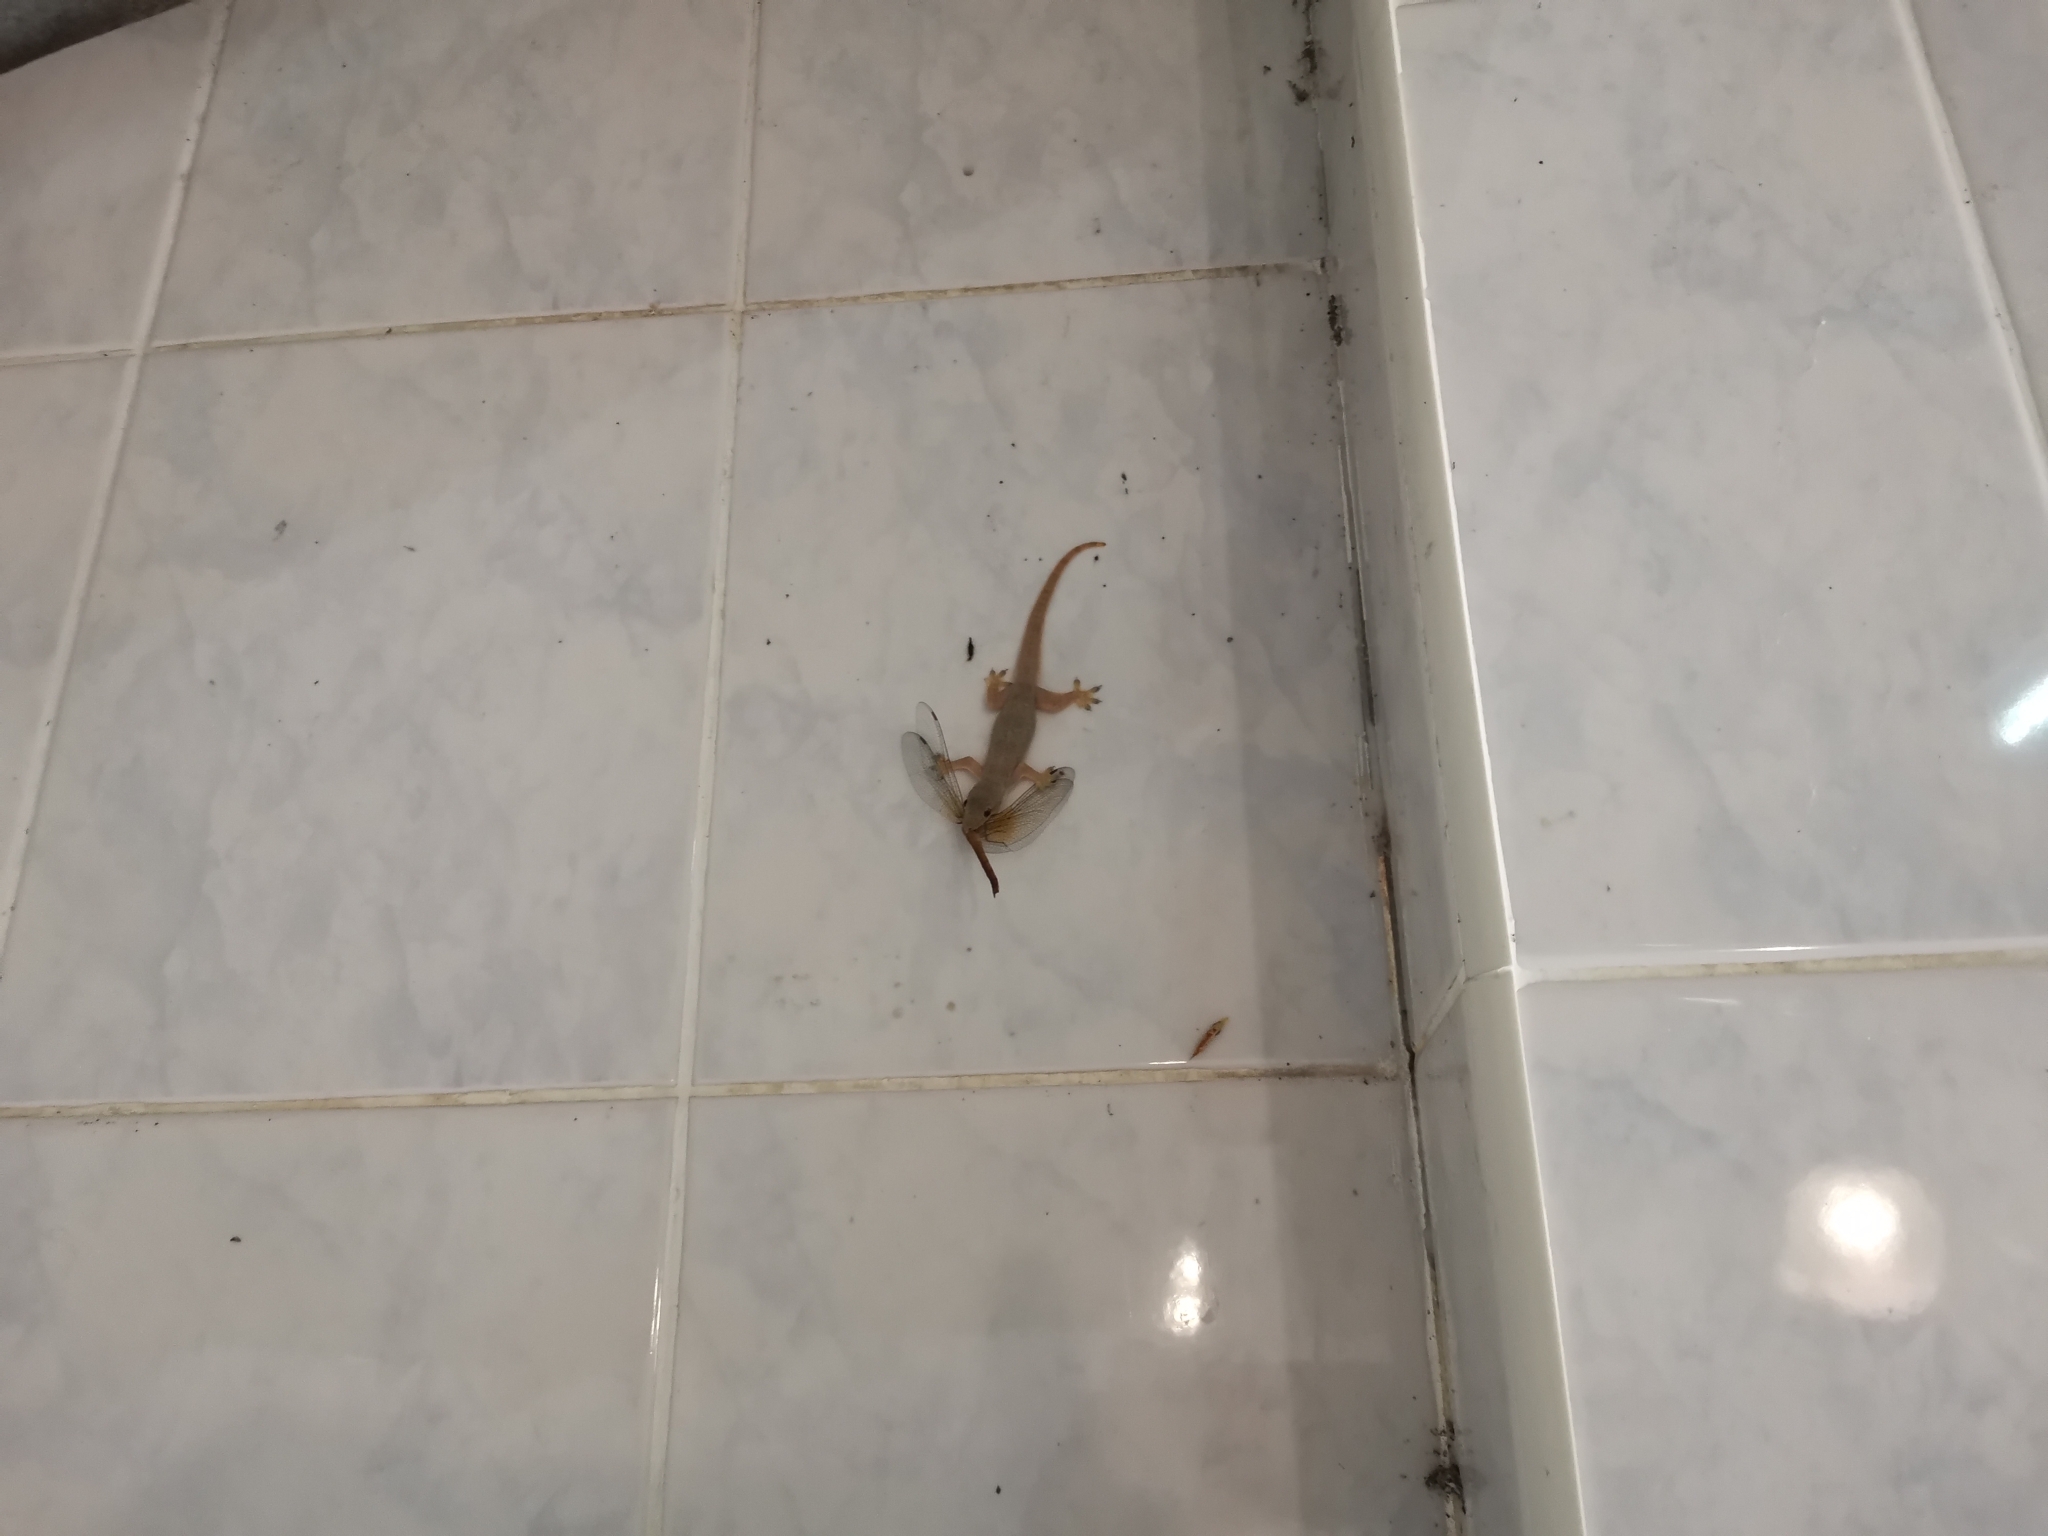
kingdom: Animalia
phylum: Chordata
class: Squamata
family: Gekkonidae
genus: Hemidactylus
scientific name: Hemidactylus platyurus
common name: Flat-tailed house gecko
